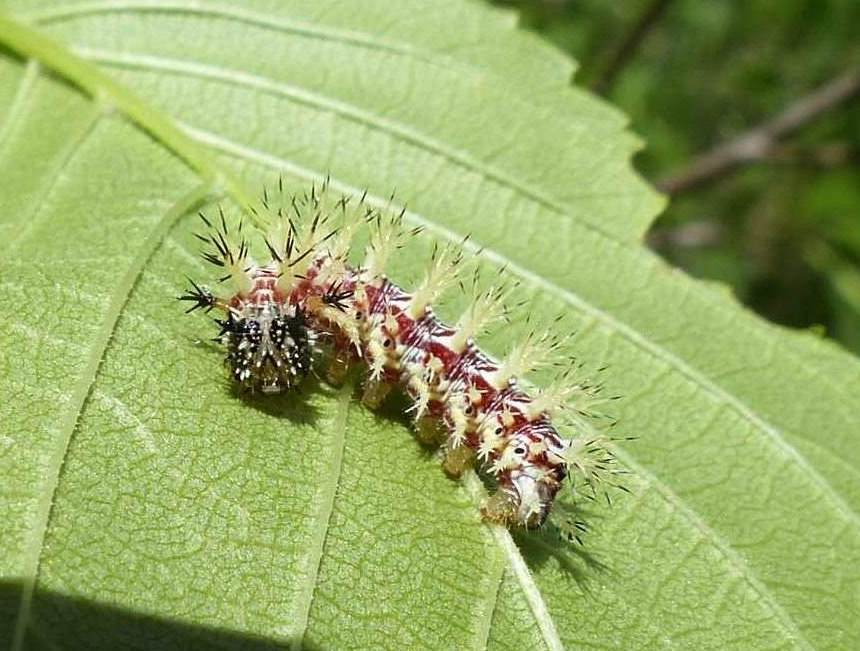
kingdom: Animalia
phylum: Arthropoda
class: Insecta
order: Lepidoptera
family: Nymphalidae
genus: Polygonia
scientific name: Polygonia interrogationis
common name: Question mark
